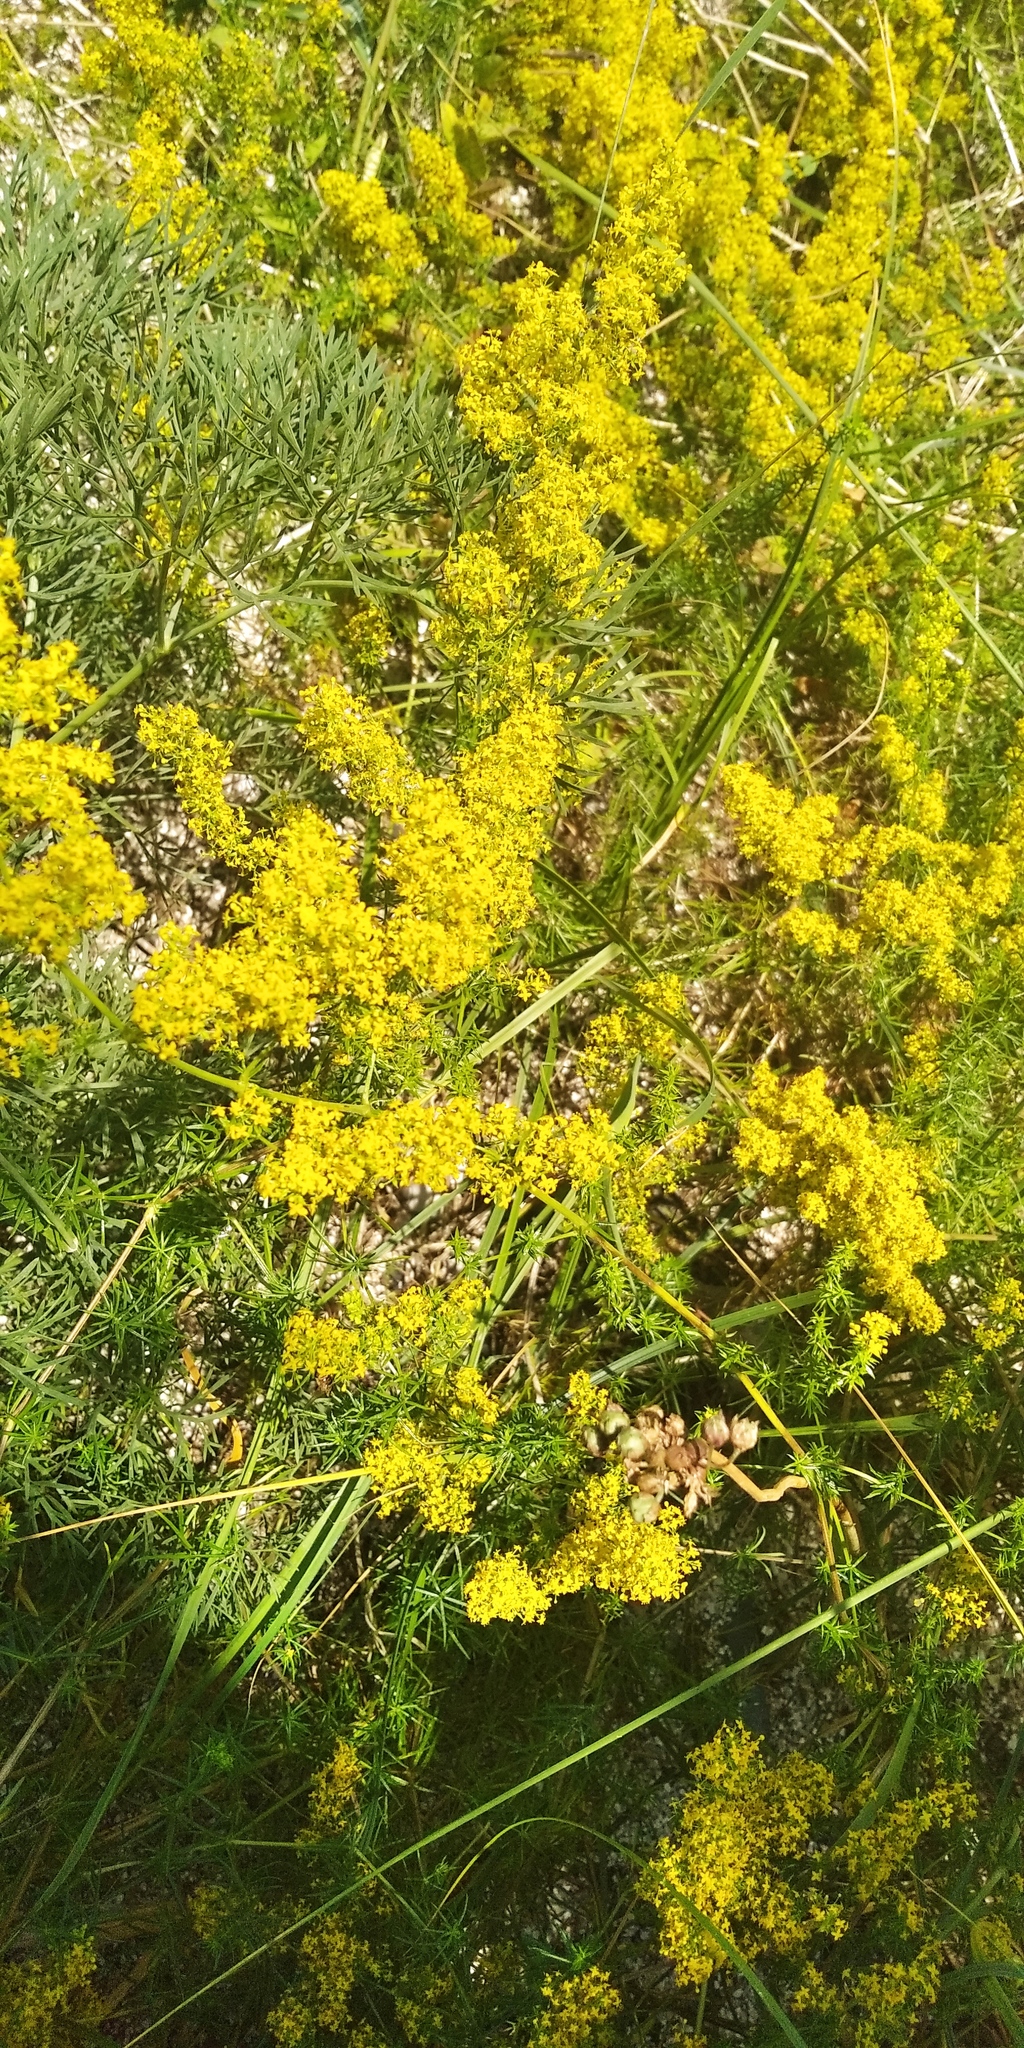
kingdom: Plantae
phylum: Tracheophyta
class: Magnoliopsida
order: Gentianales
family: Rubiaceae
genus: Galium
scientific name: Galium verum
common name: Lady's bedstraw
